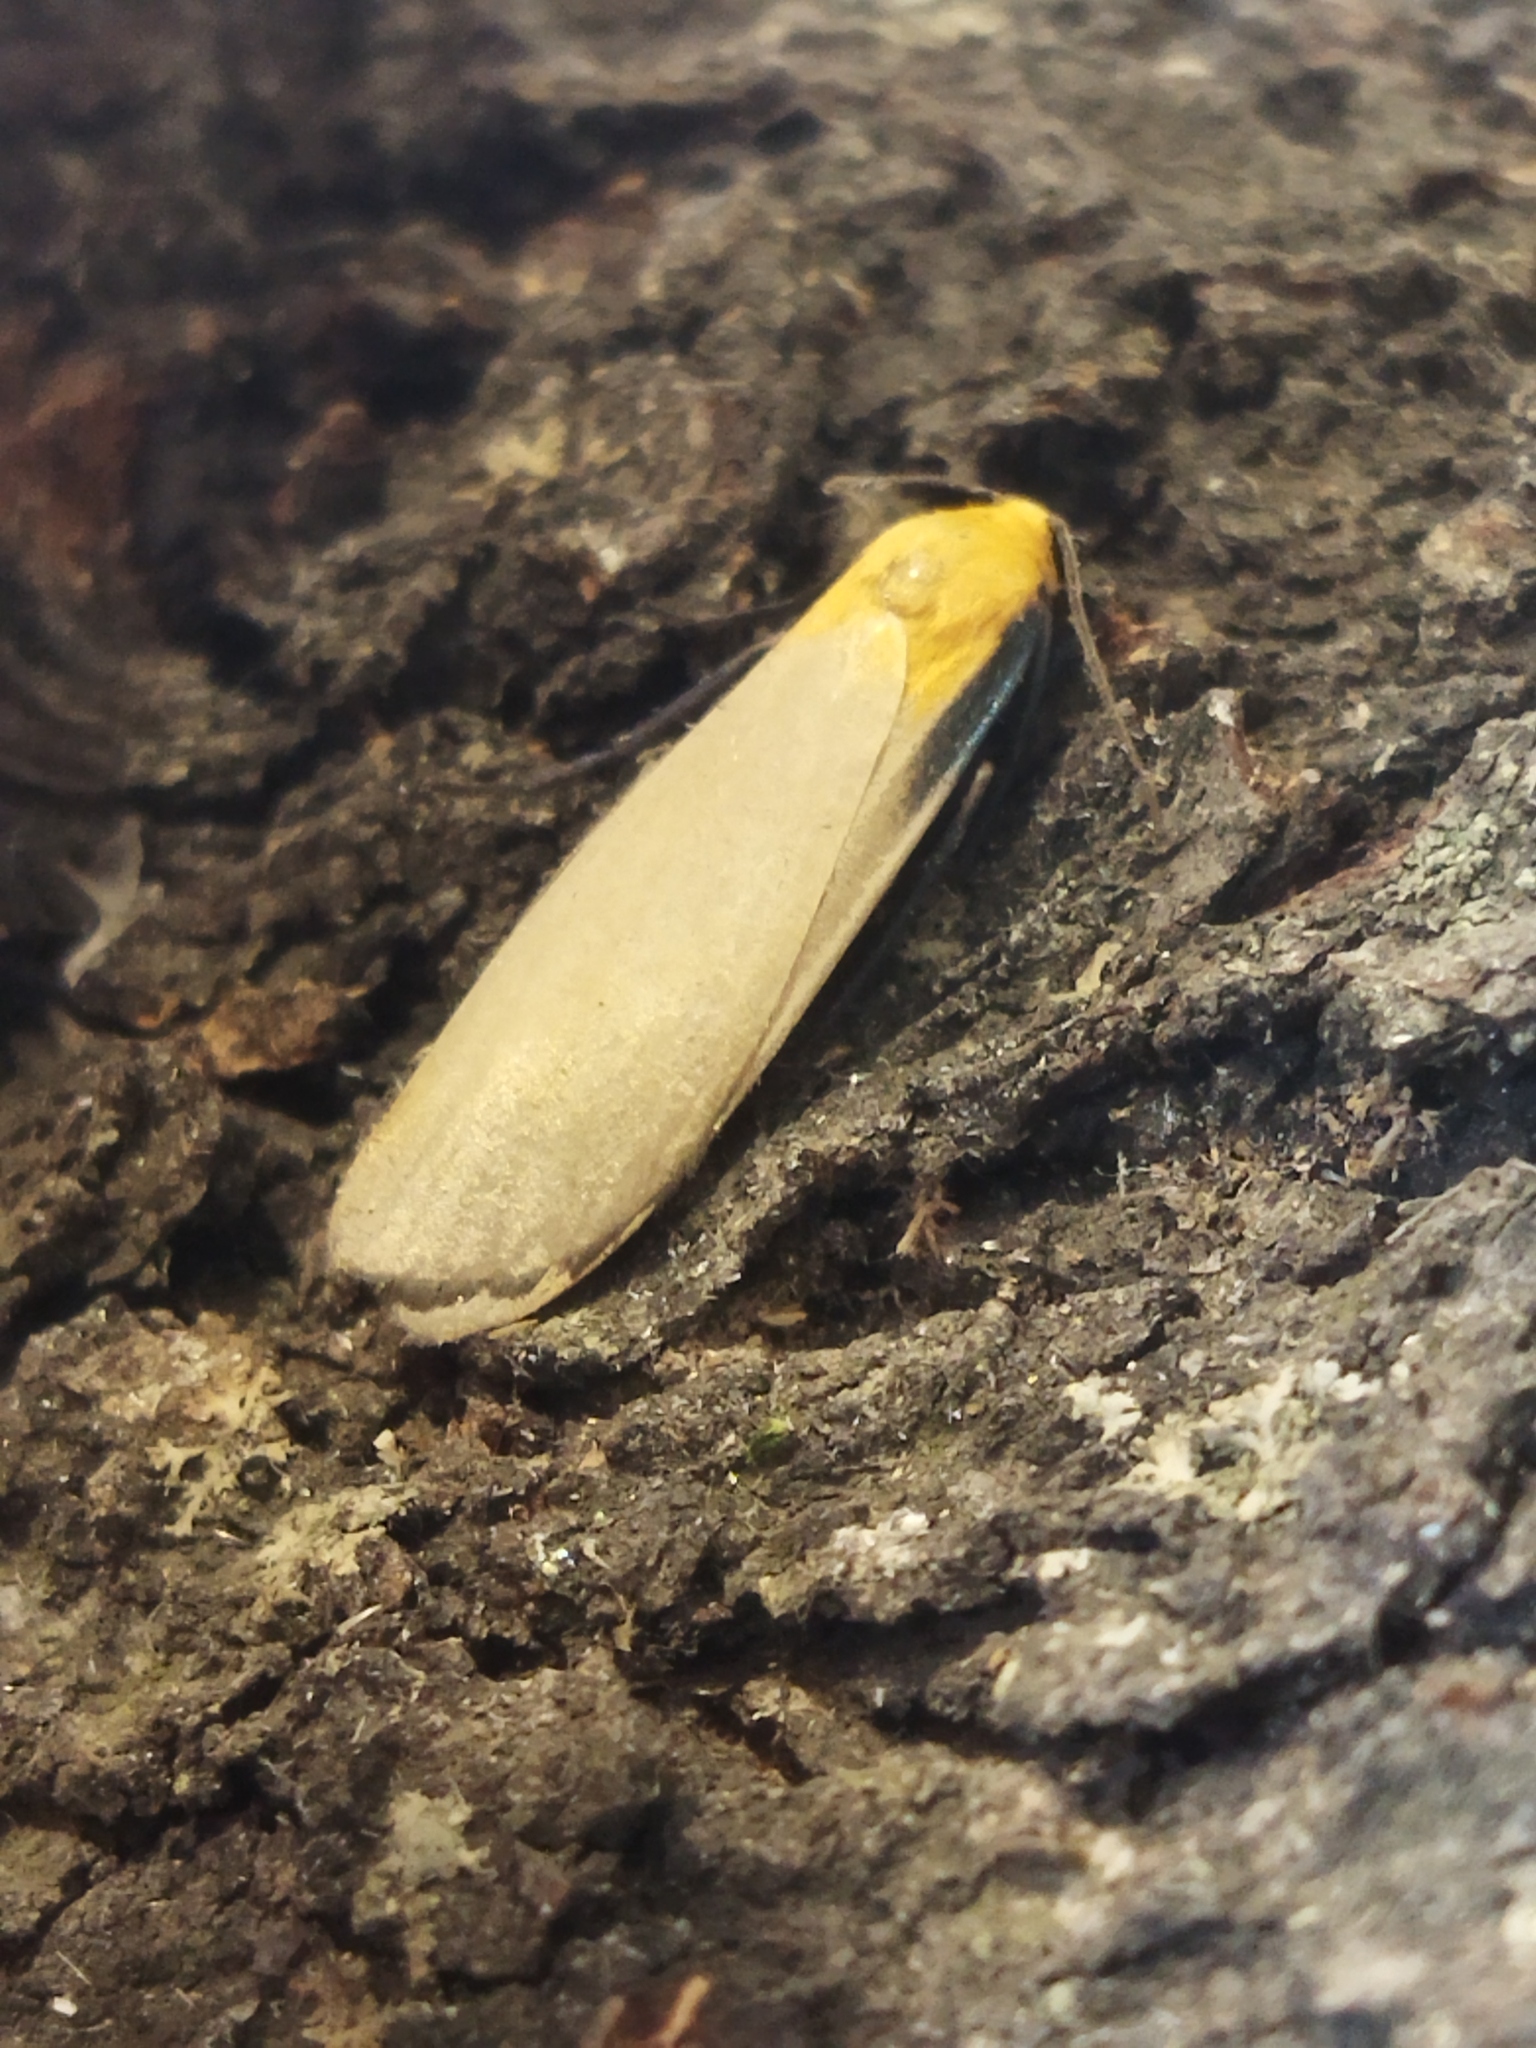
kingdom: Animalia
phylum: Arthropoda
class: Insecta
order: Lepidoptera
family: Erebidae
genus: Lithosia
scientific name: Lithosia quadra
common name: Four-spotted footman
